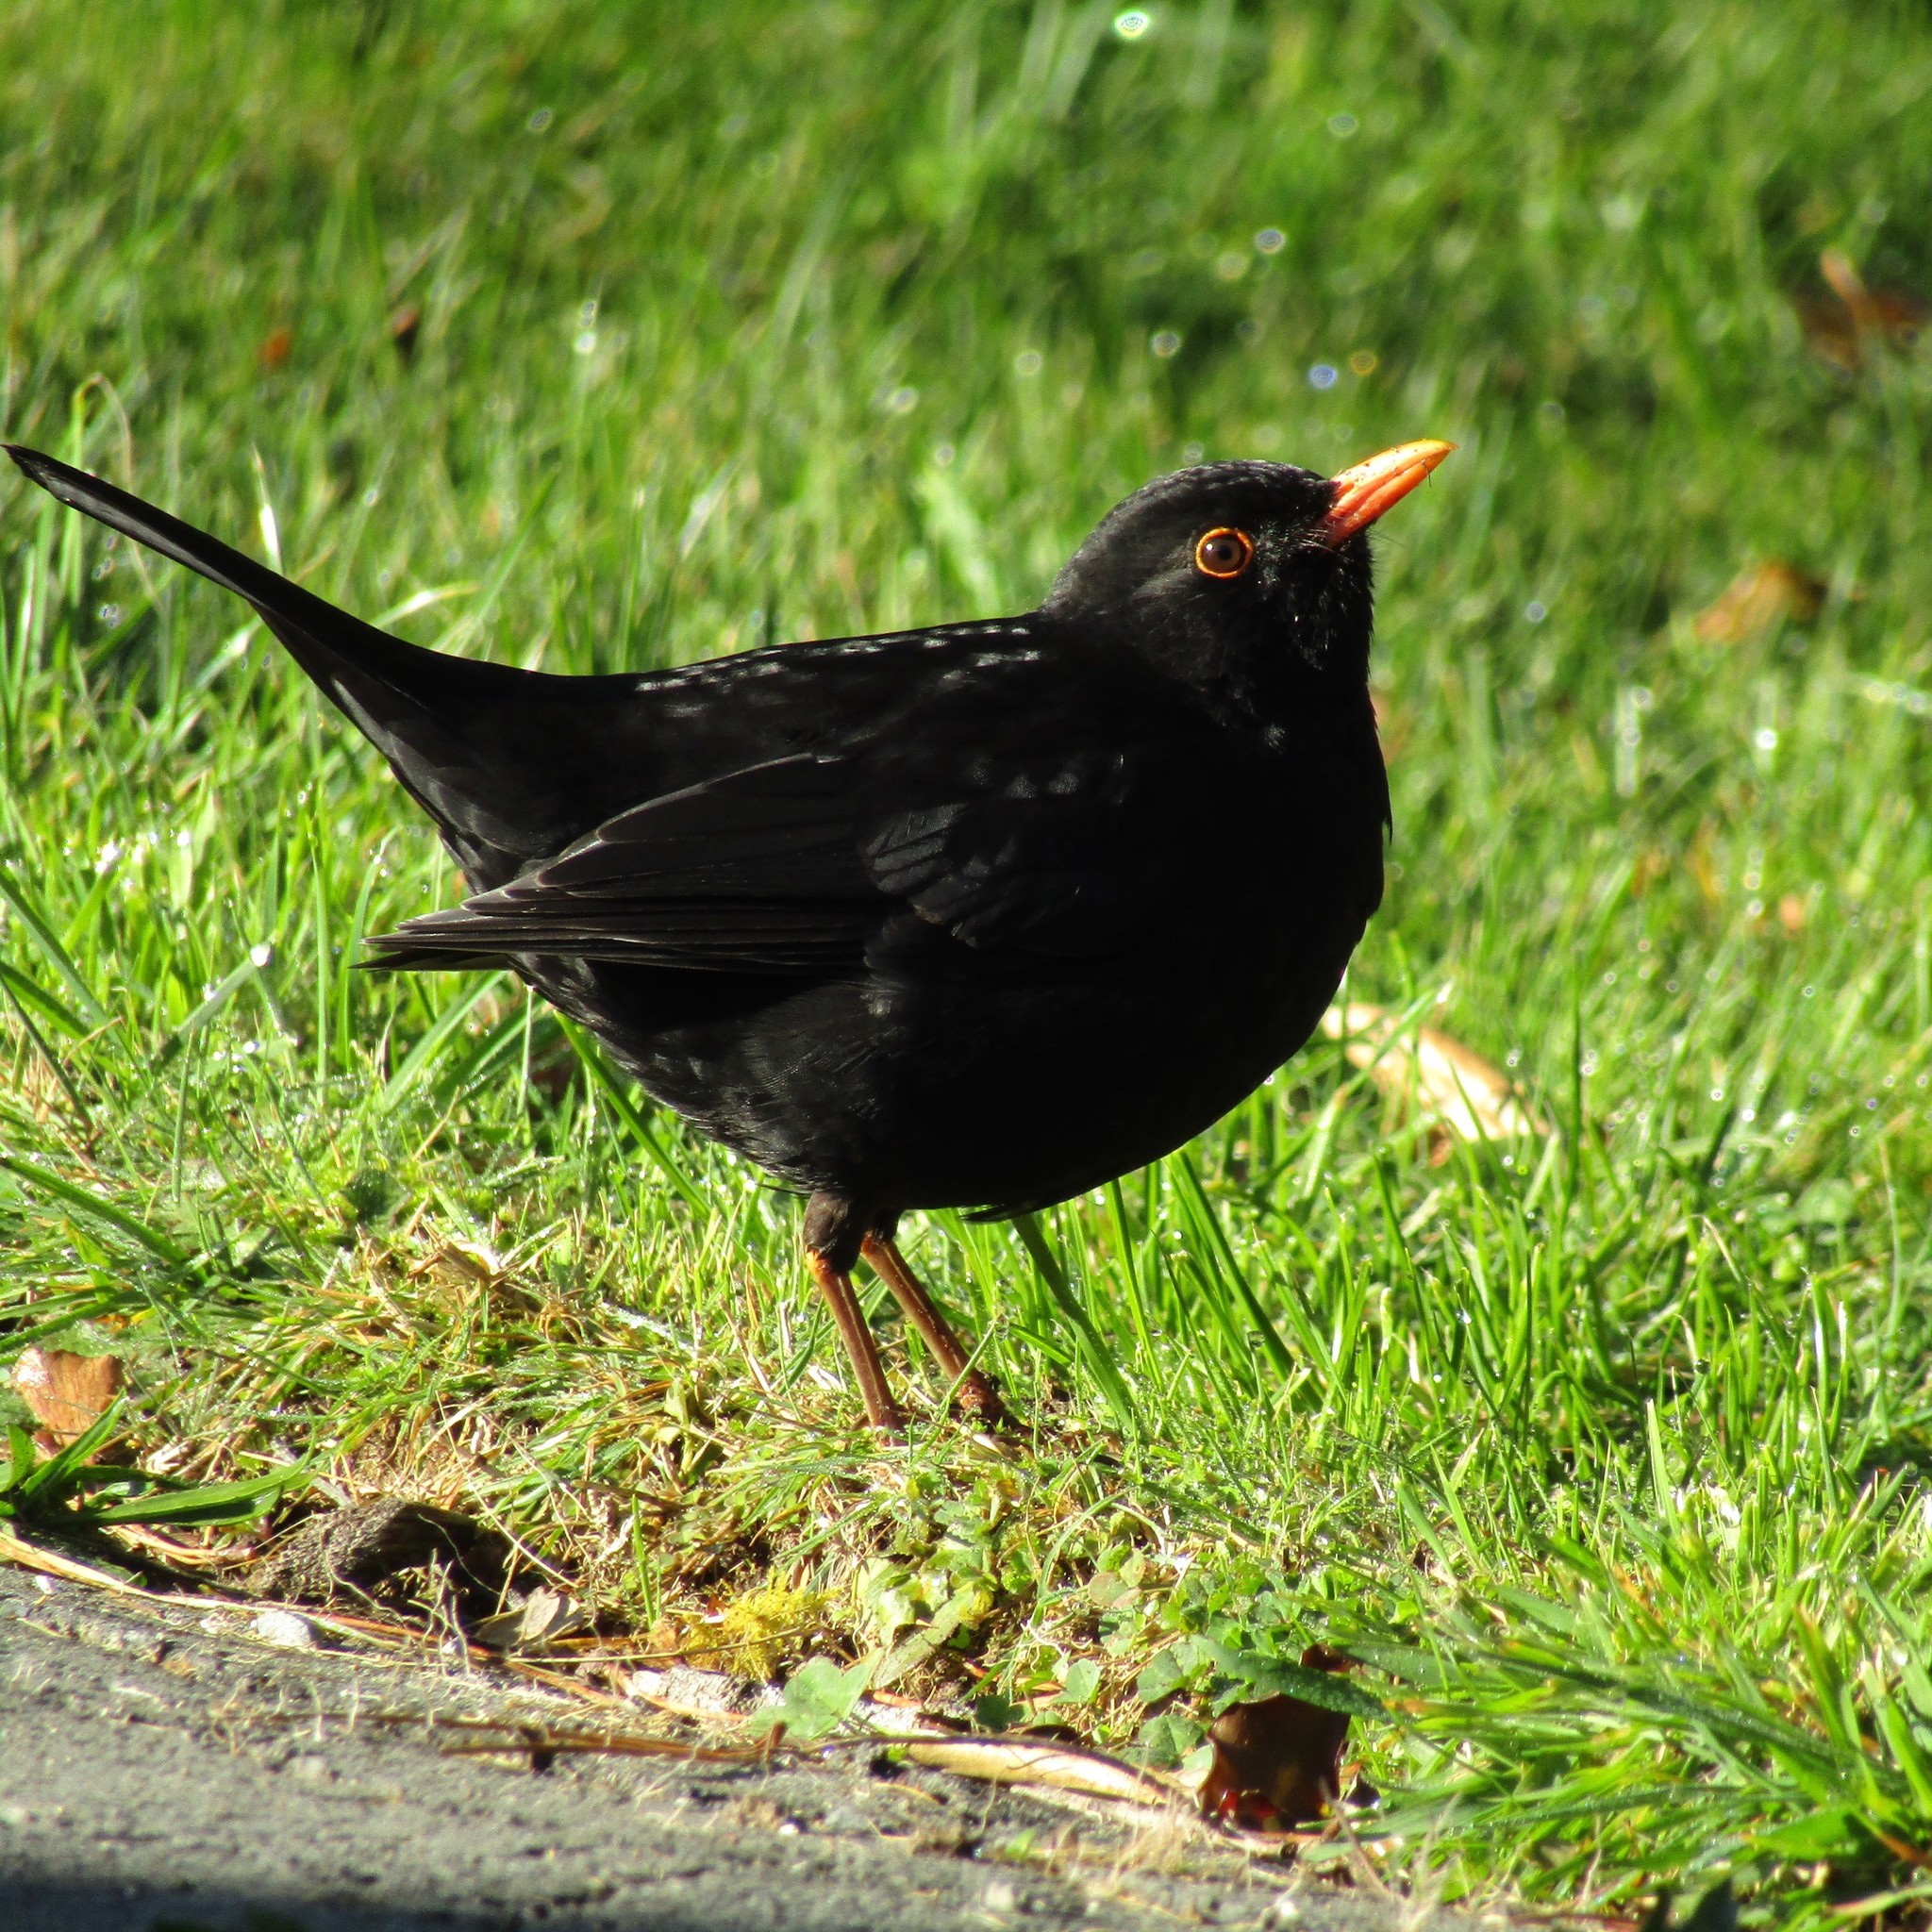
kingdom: Animalia
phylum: Chordata
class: Aves
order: Passeriformes
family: Turdidae
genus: Turdus
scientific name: Turdus merula
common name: Common blackbird
